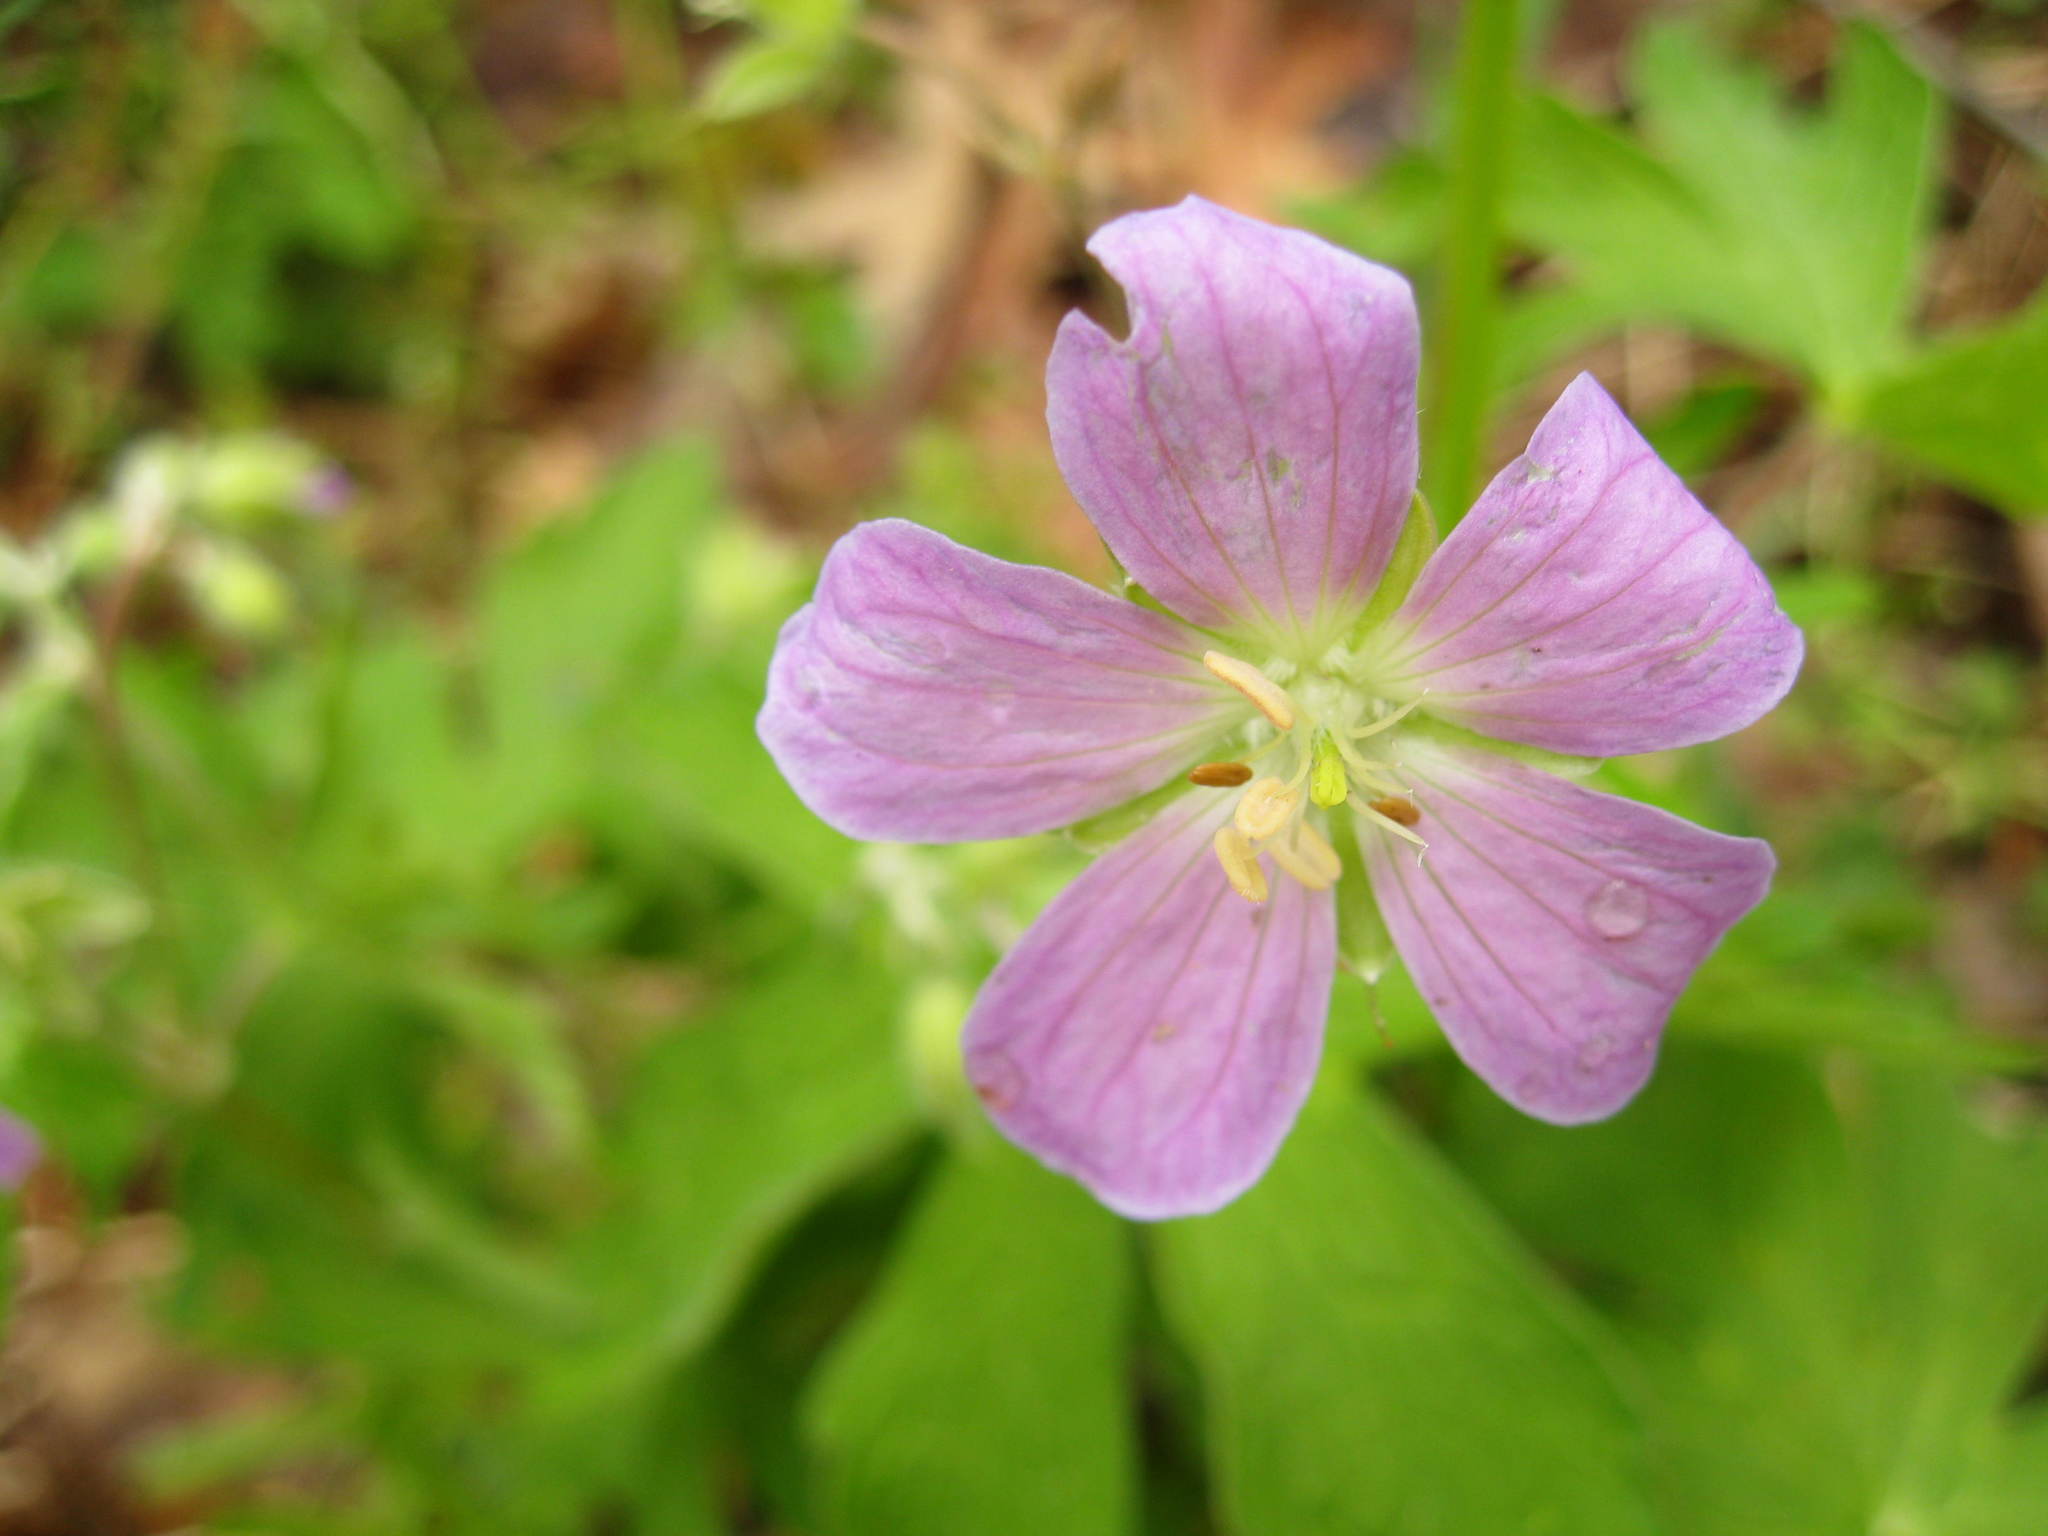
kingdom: Plantae
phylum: Tracheophyta
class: Magnoliopsida
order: Geraniales
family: Geraniaceae
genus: Geranium
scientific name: Geranium maculatum
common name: Spotted geranium
